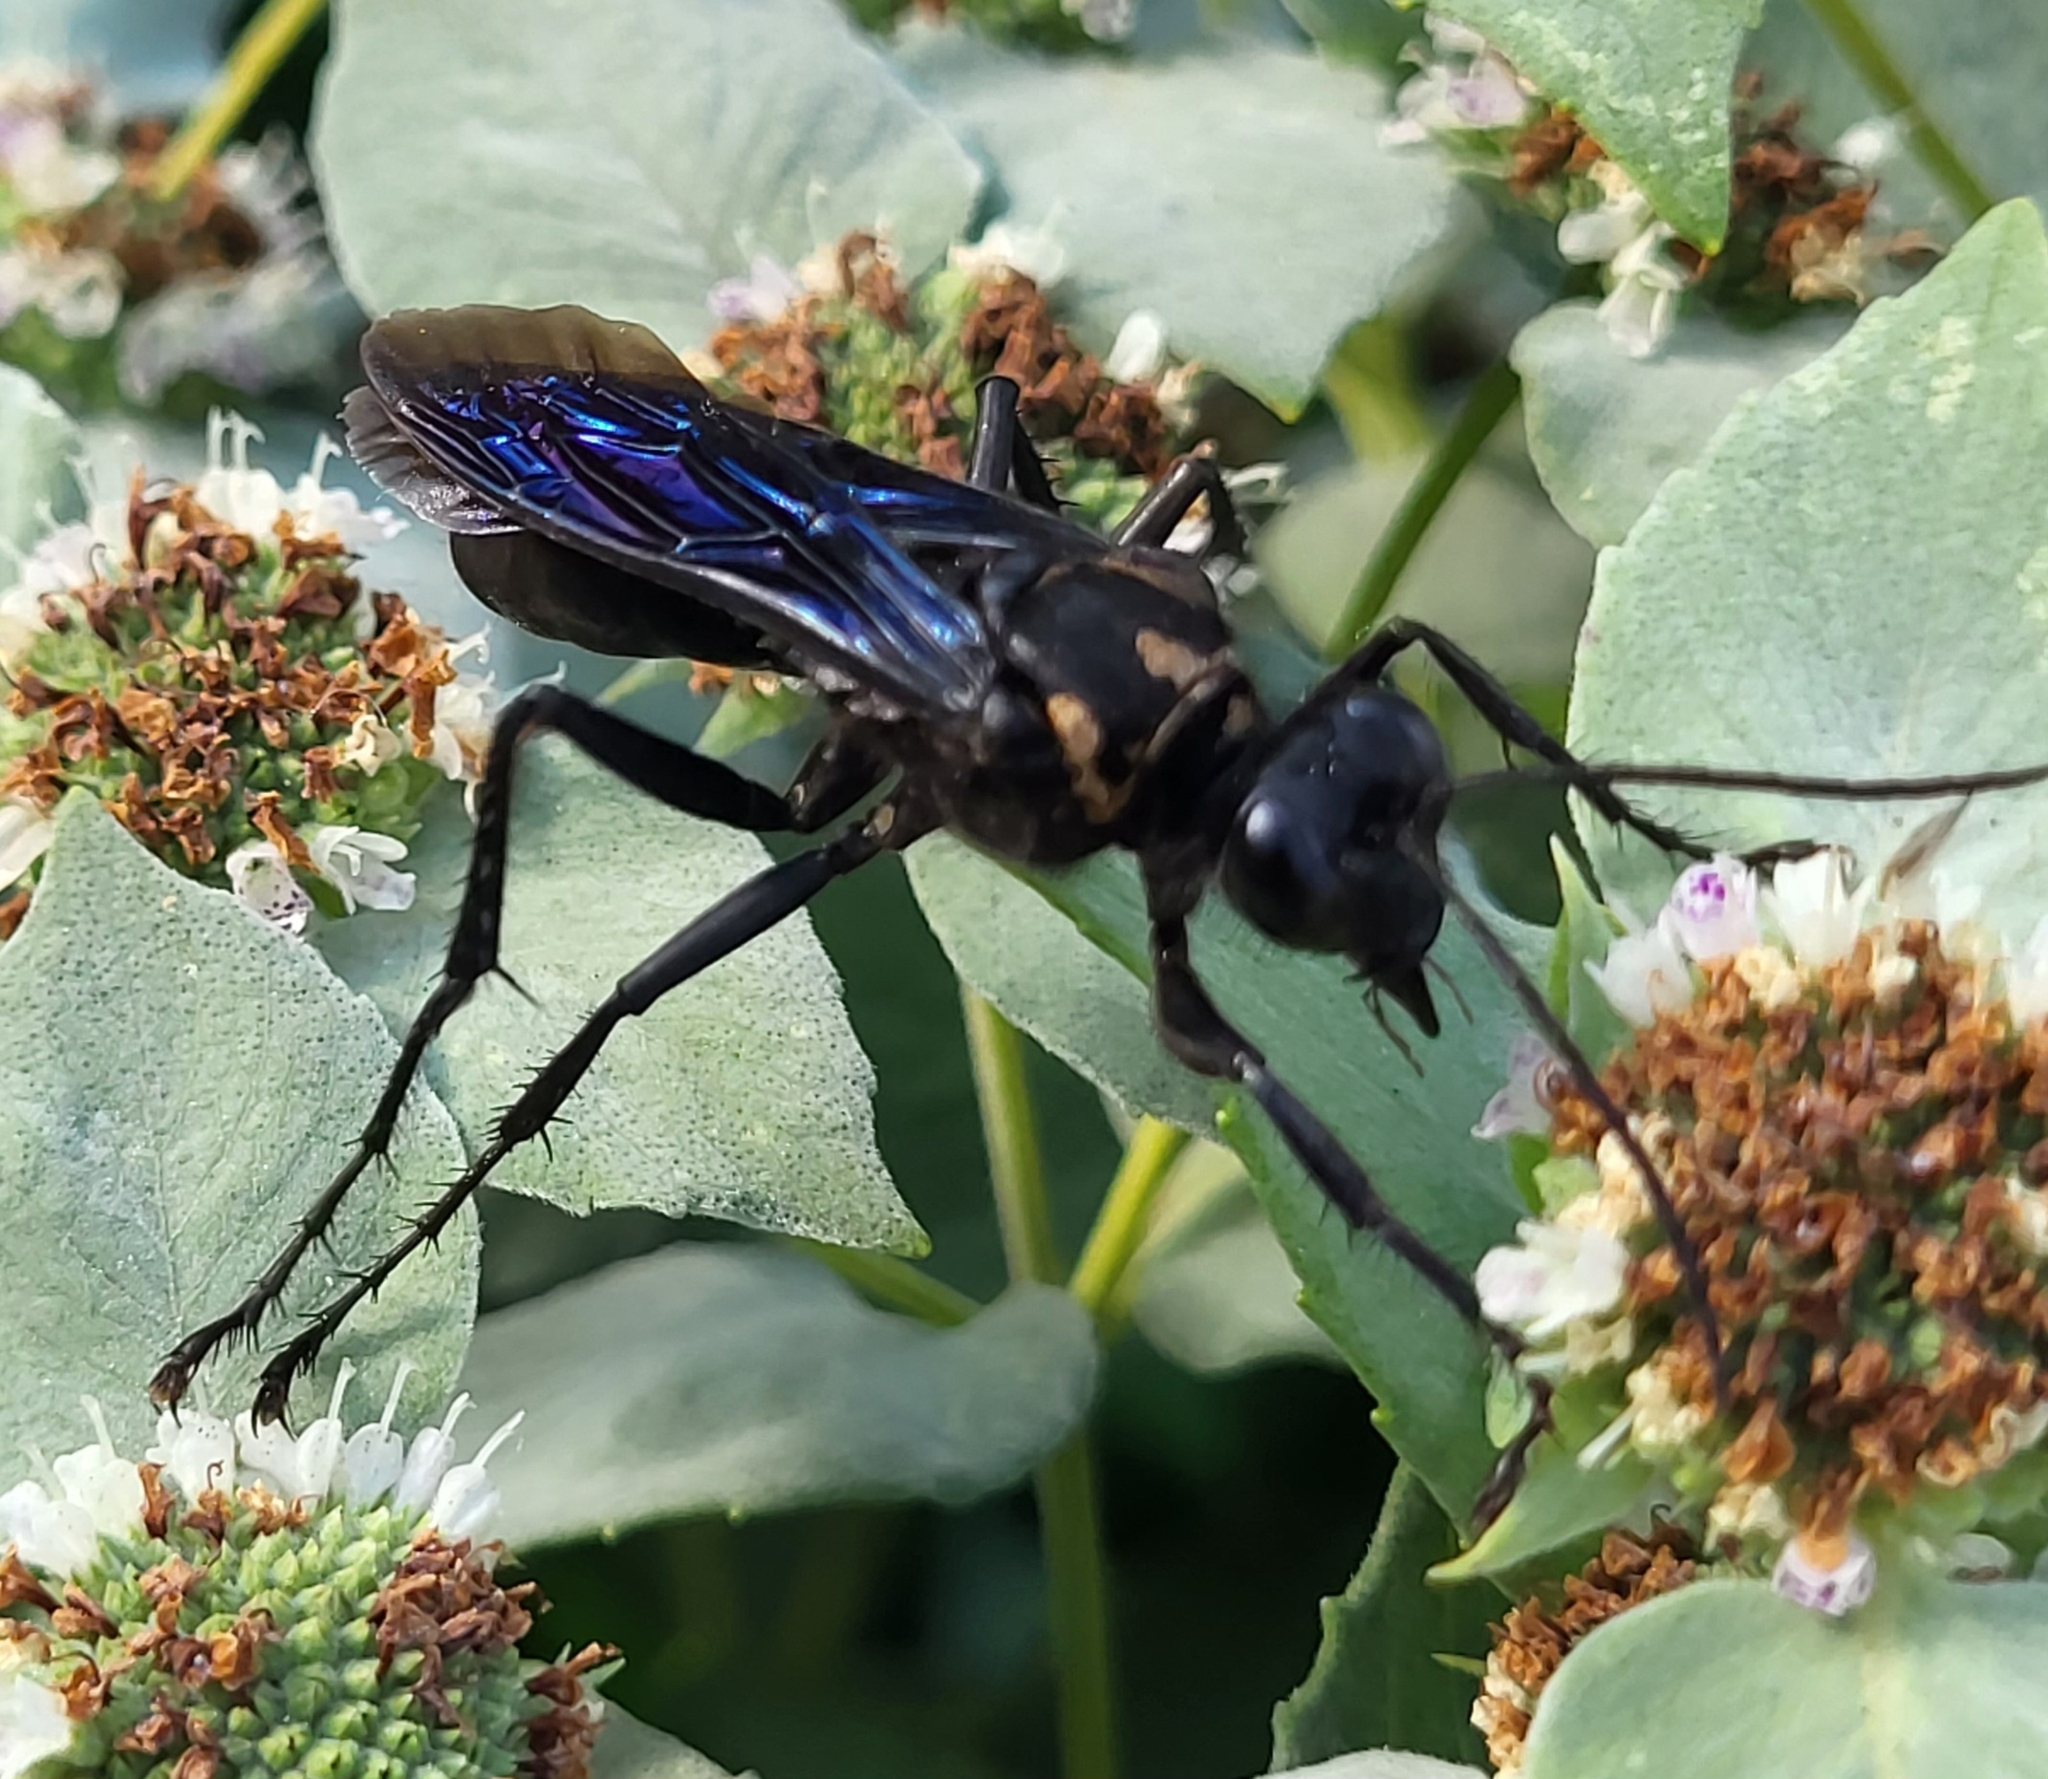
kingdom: Animalia
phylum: Arthropoda
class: Insecta
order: Hymenoptera
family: Sphecidae
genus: Sphex
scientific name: Sphex pensylvanicus
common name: Great black digger wasp
